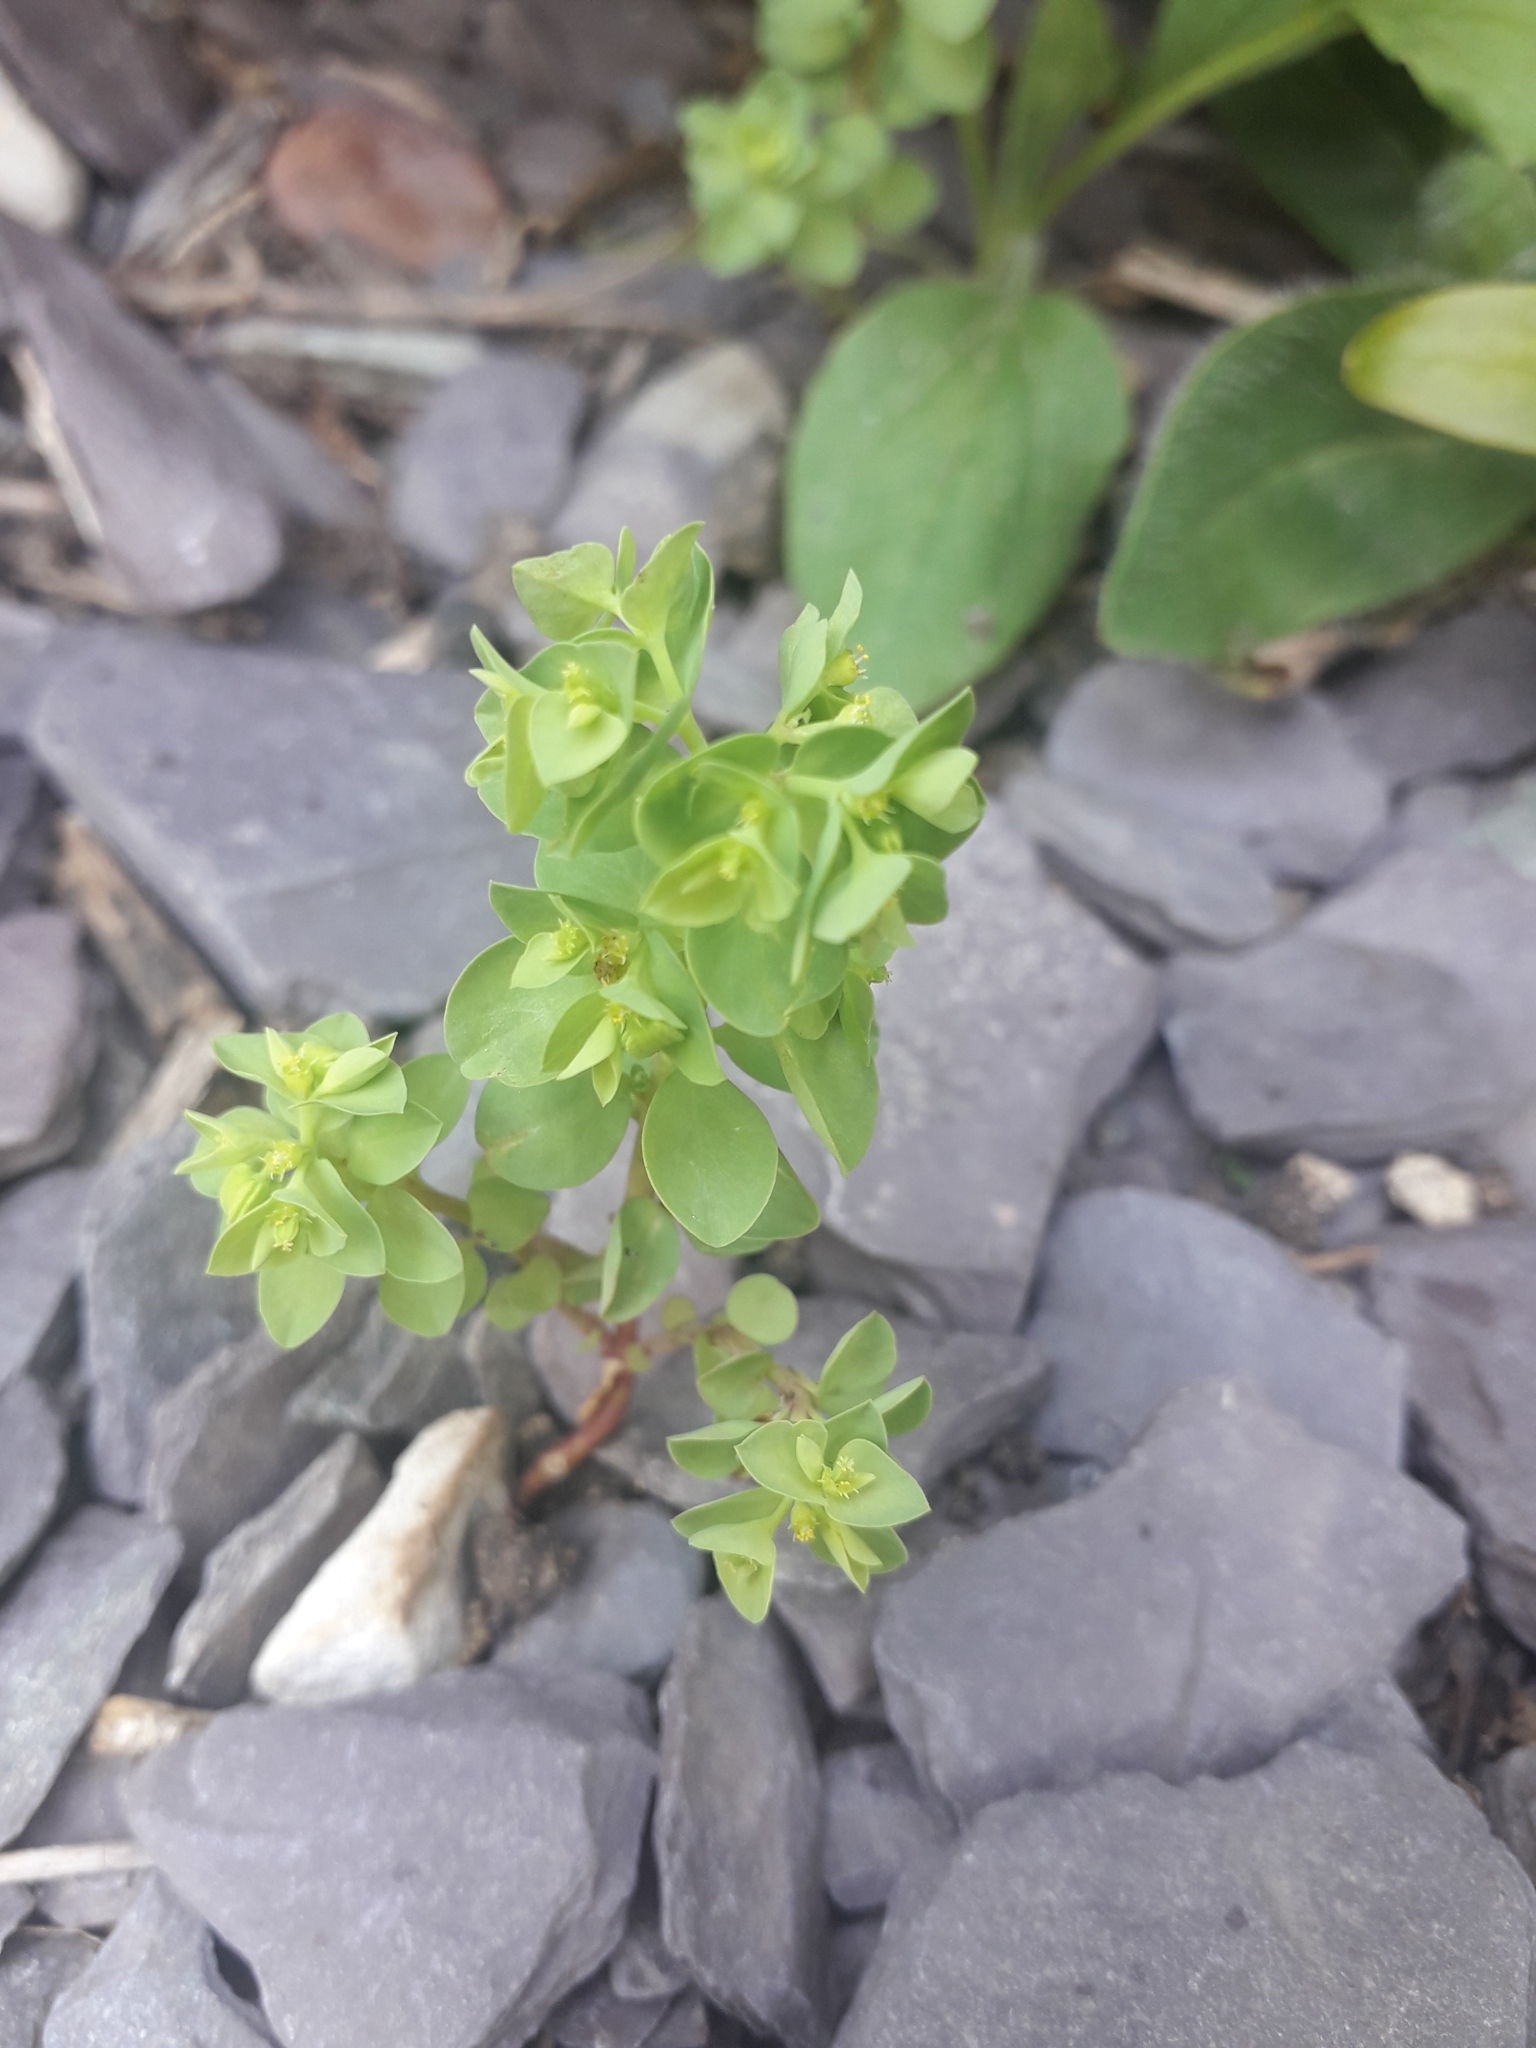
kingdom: Plantae
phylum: Tracheophyta
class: Magnoliopsida
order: Malpighiales
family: Euphorbiaceae
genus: Euphorbia
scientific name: Euphorbia peplus
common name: Petty spurge
